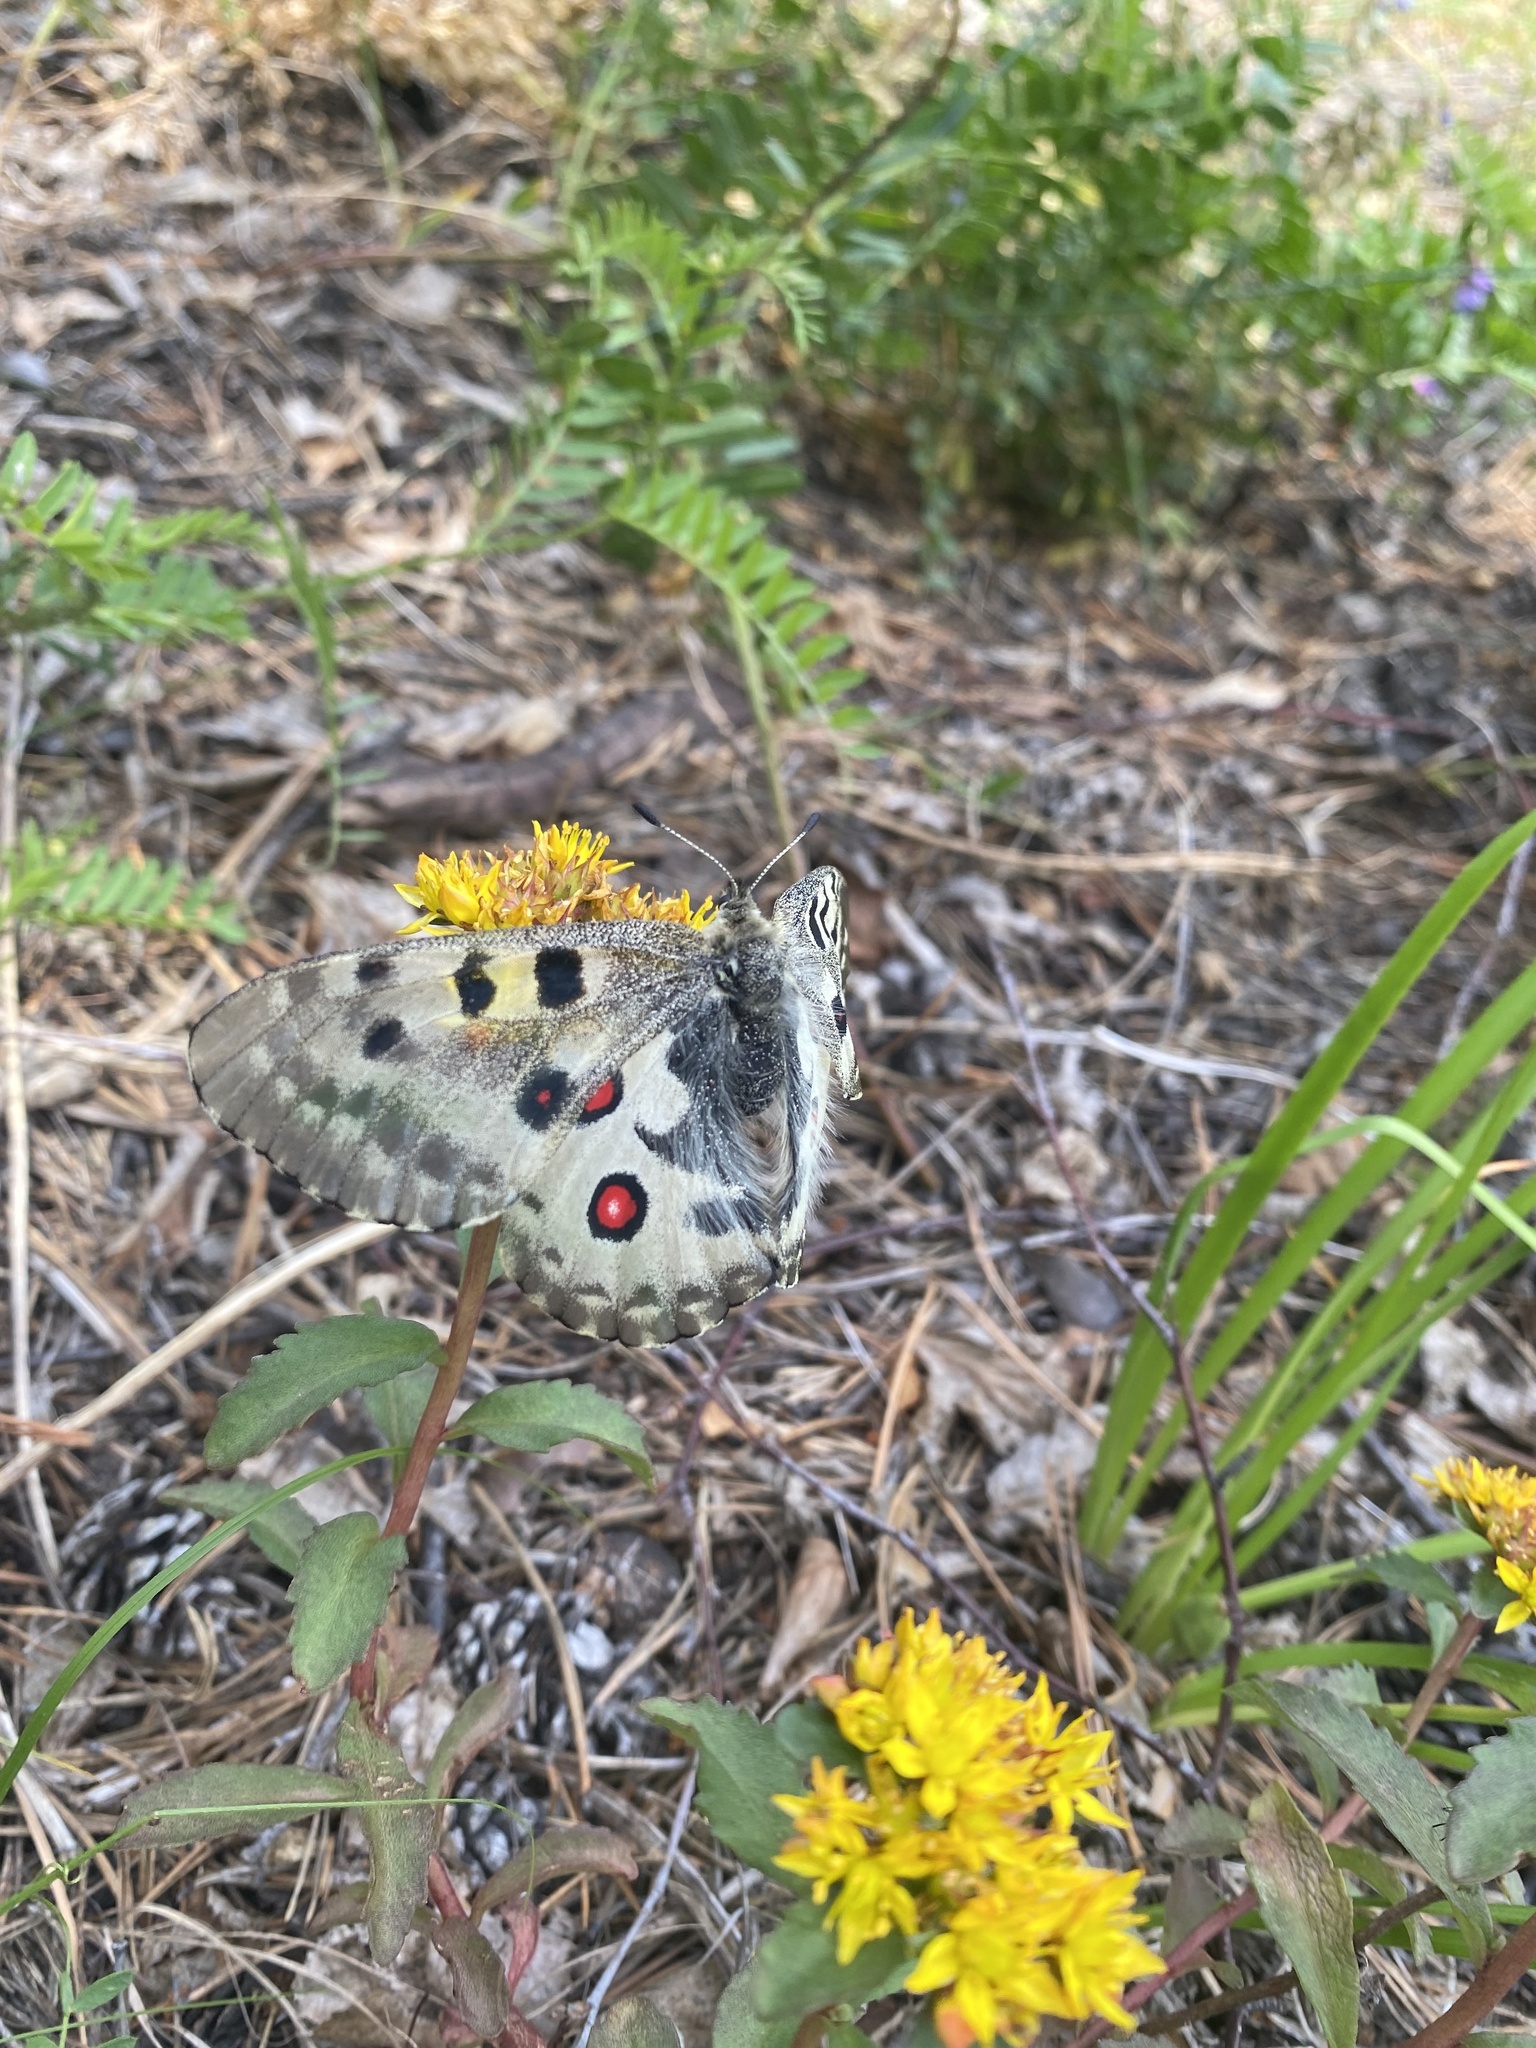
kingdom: Animalia
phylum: Arthropoda
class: Insecta
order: Lepidoptera
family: Papilionidae
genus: Parnassius
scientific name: Parnassius nomion
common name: Nomion apollo
